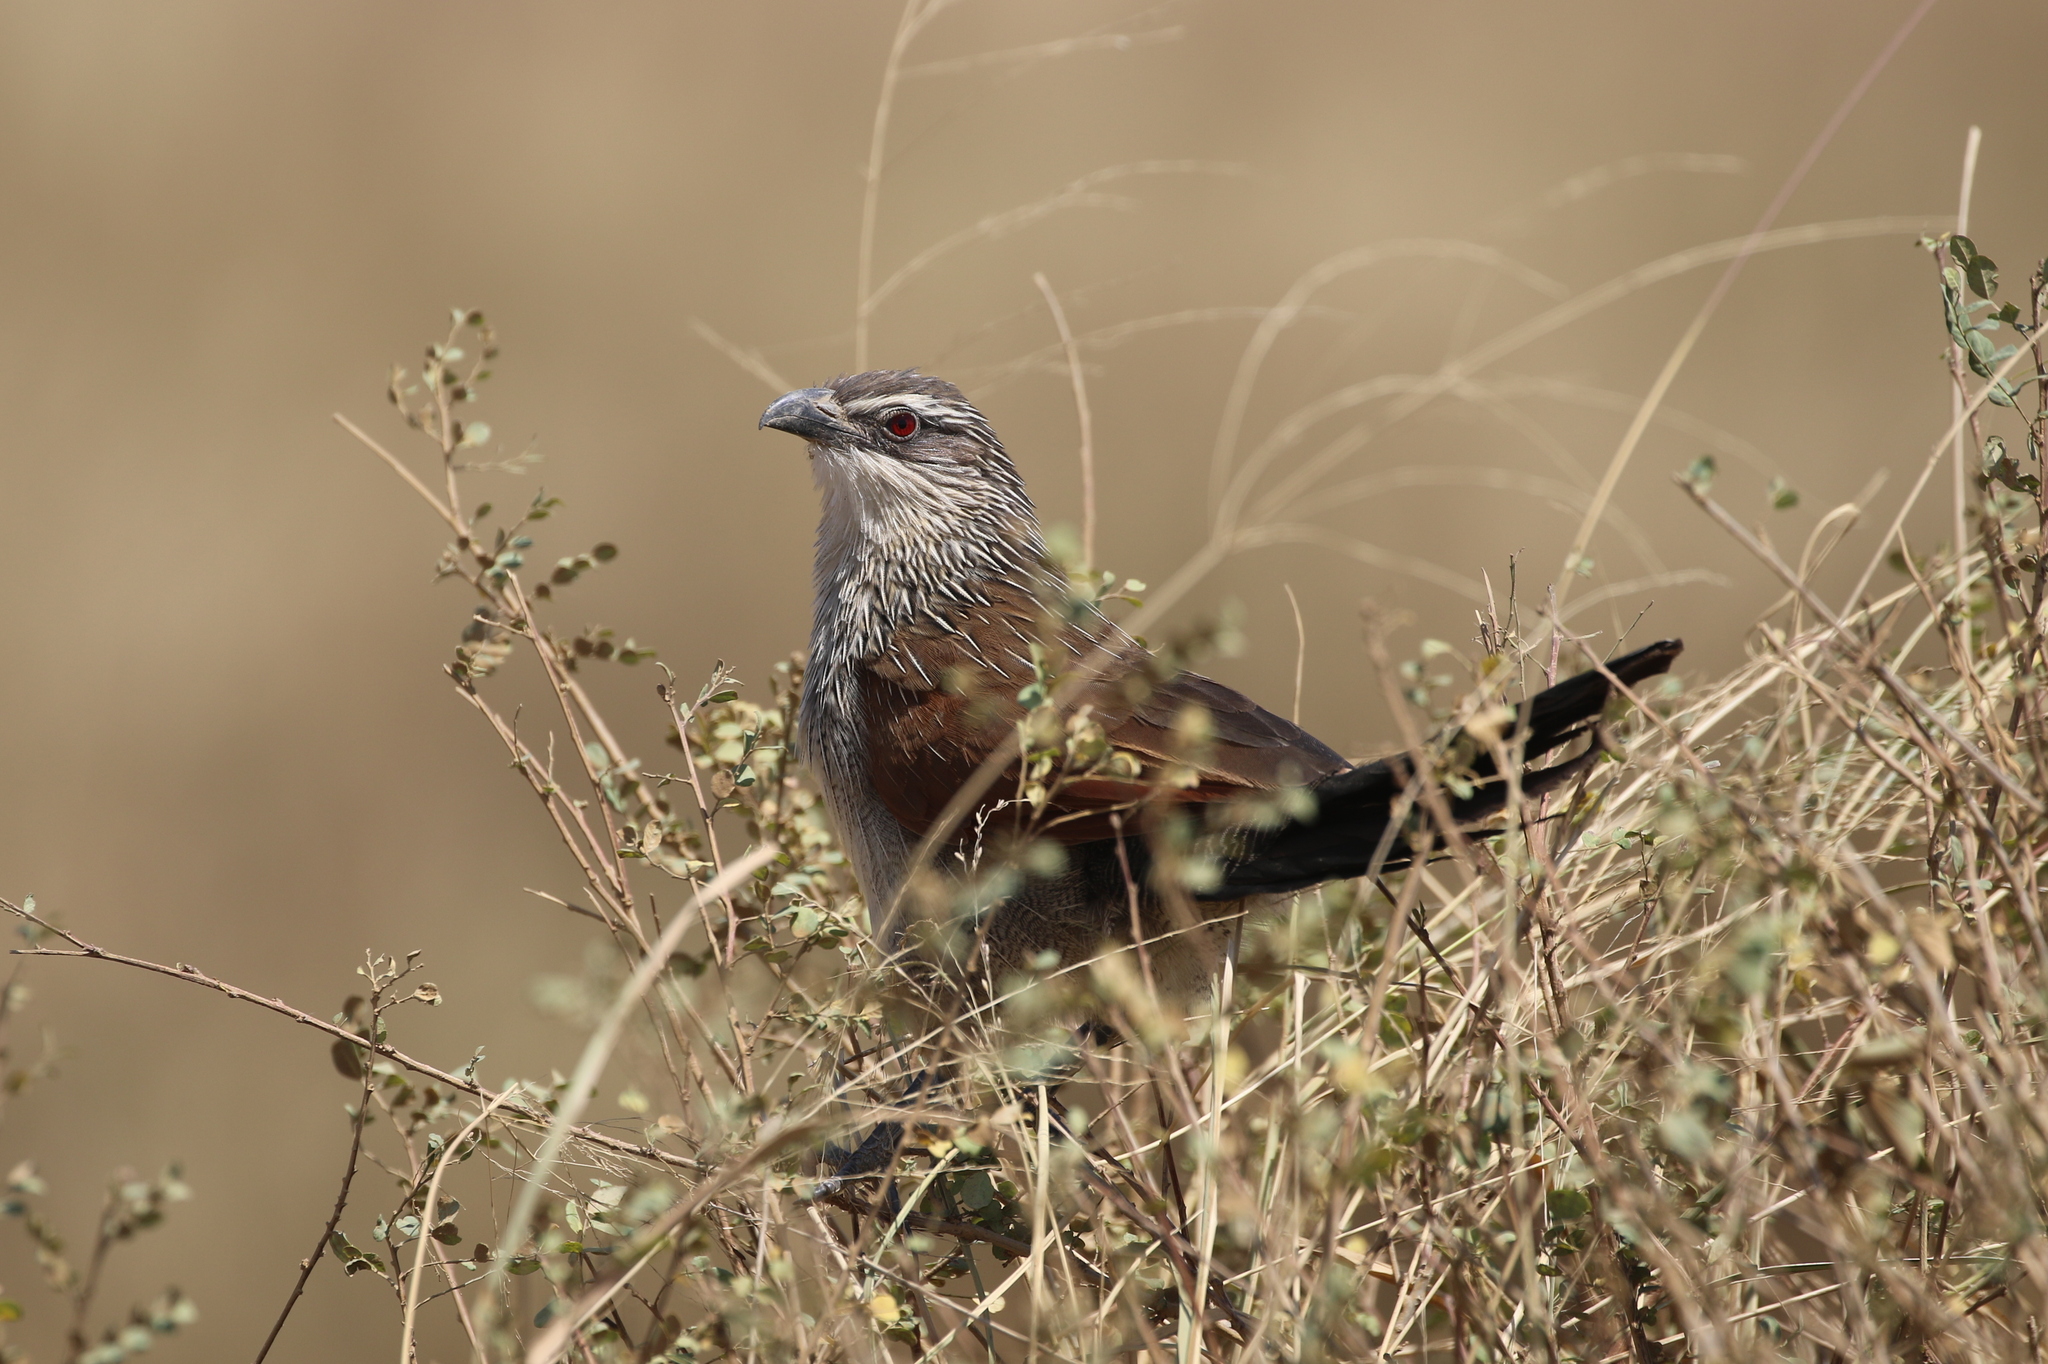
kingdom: Animalia
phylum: Chordata
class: Aves
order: Cuculiformes
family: Cuculidae
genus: Centropus
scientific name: Centropus superciliosus
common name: White-browed coucal
